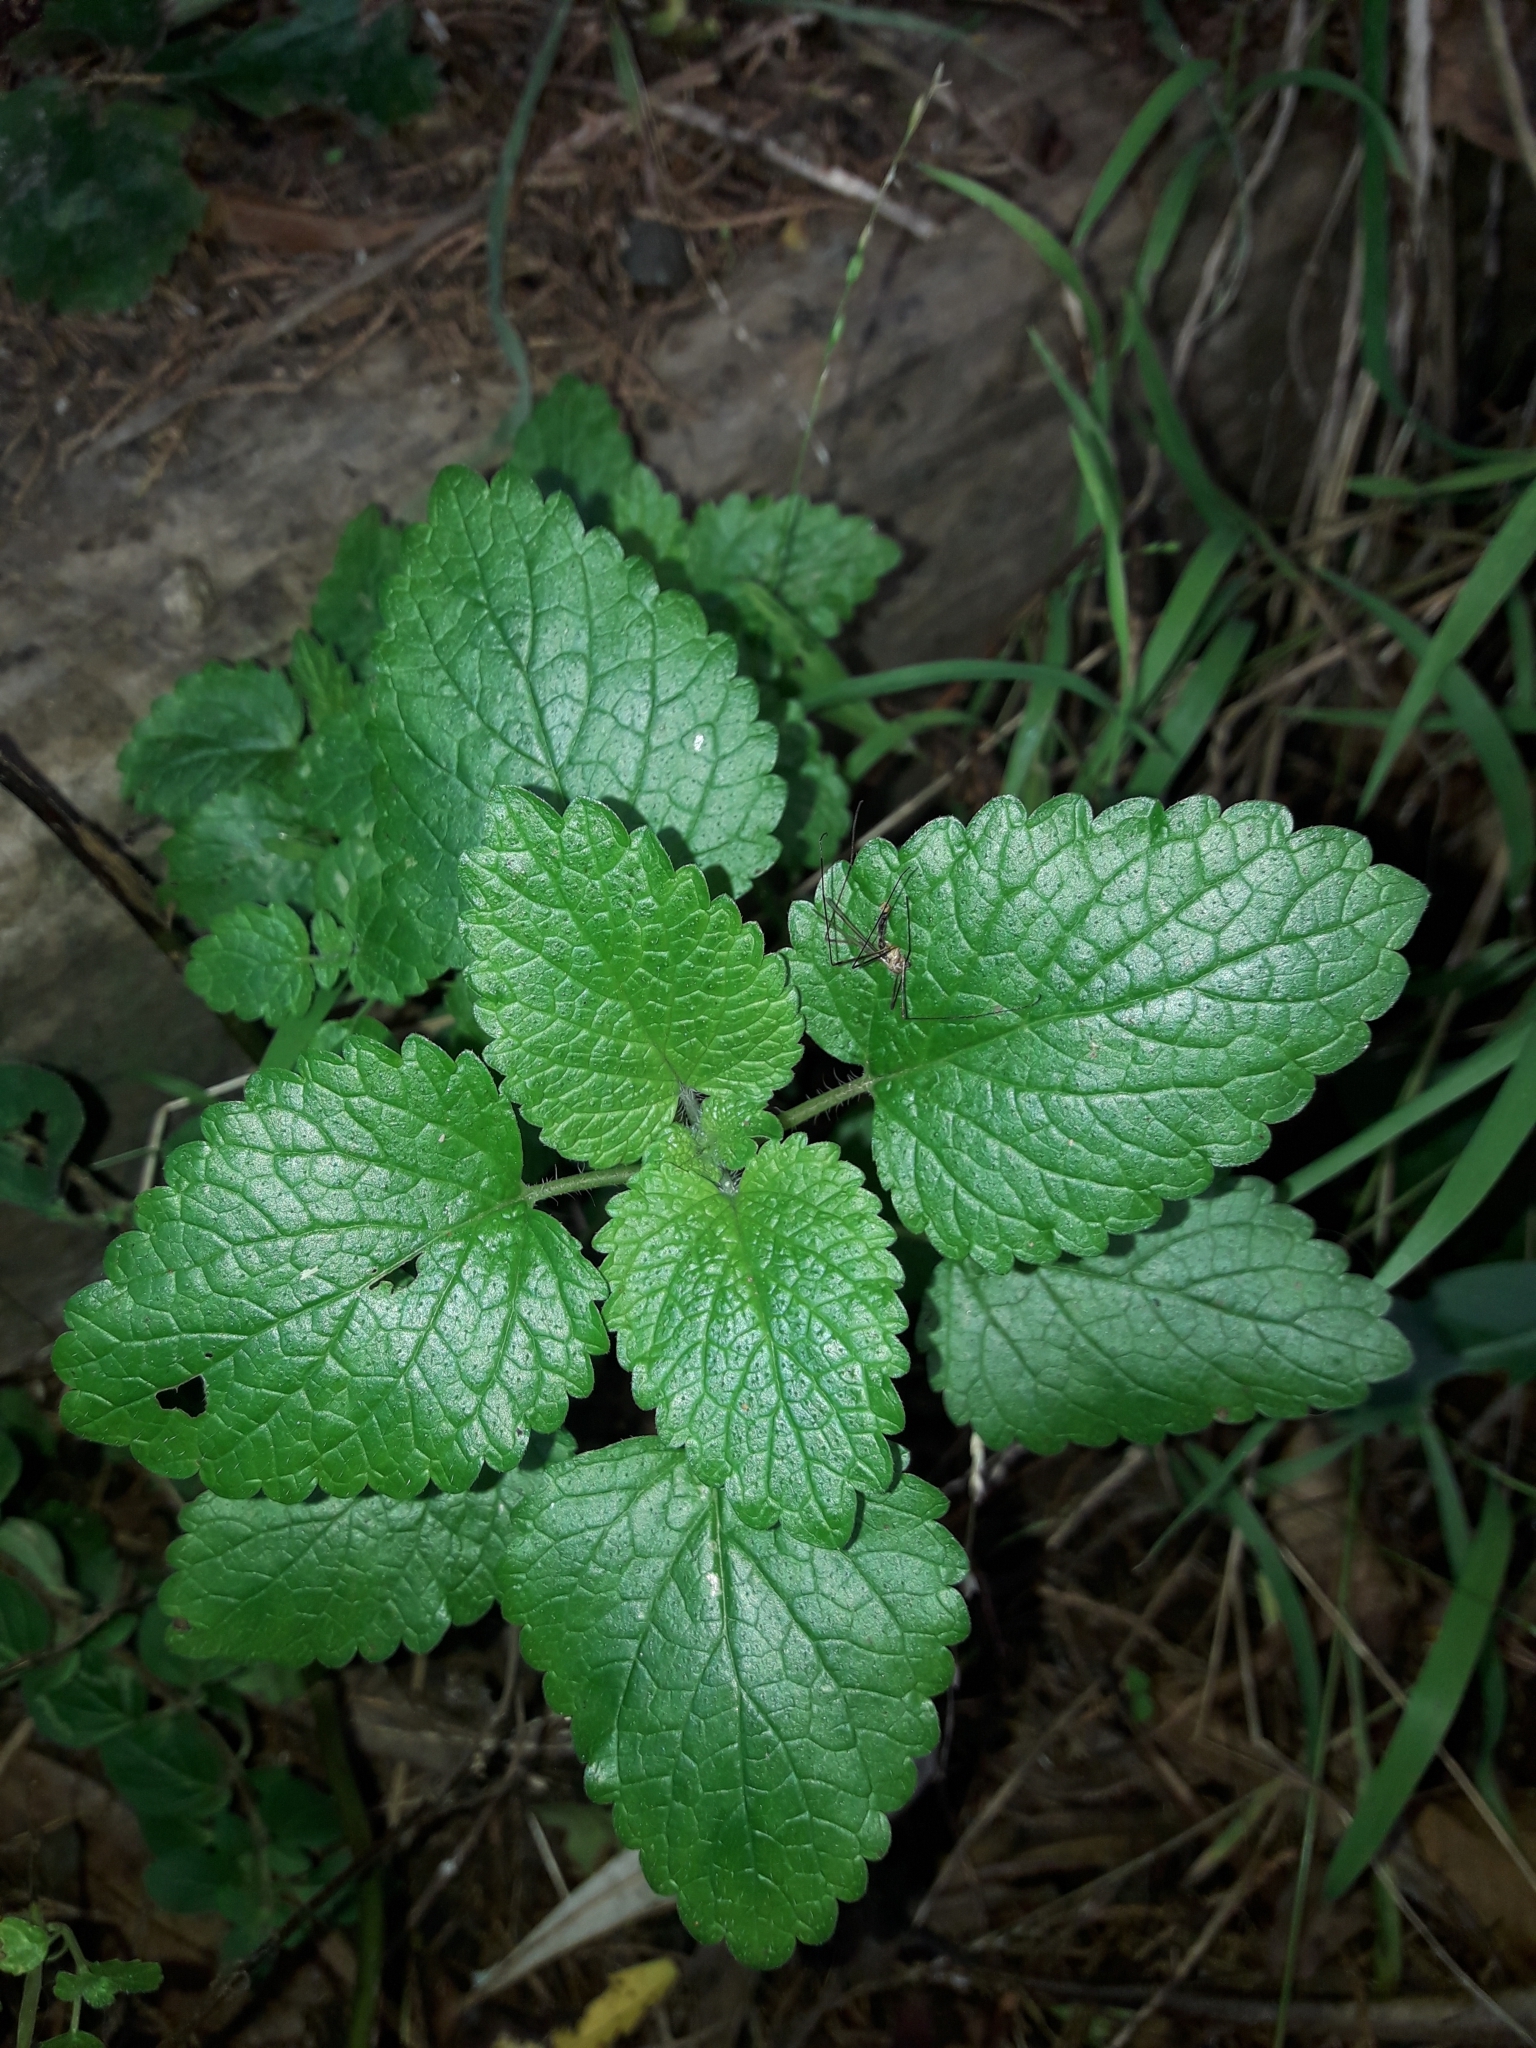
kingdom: Plantae
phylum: Tracheophyta
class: Magnoliopsida
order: Lamiales
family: Lamiaceae
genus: Melissa
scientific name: Melissa officinalis
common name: Balm
